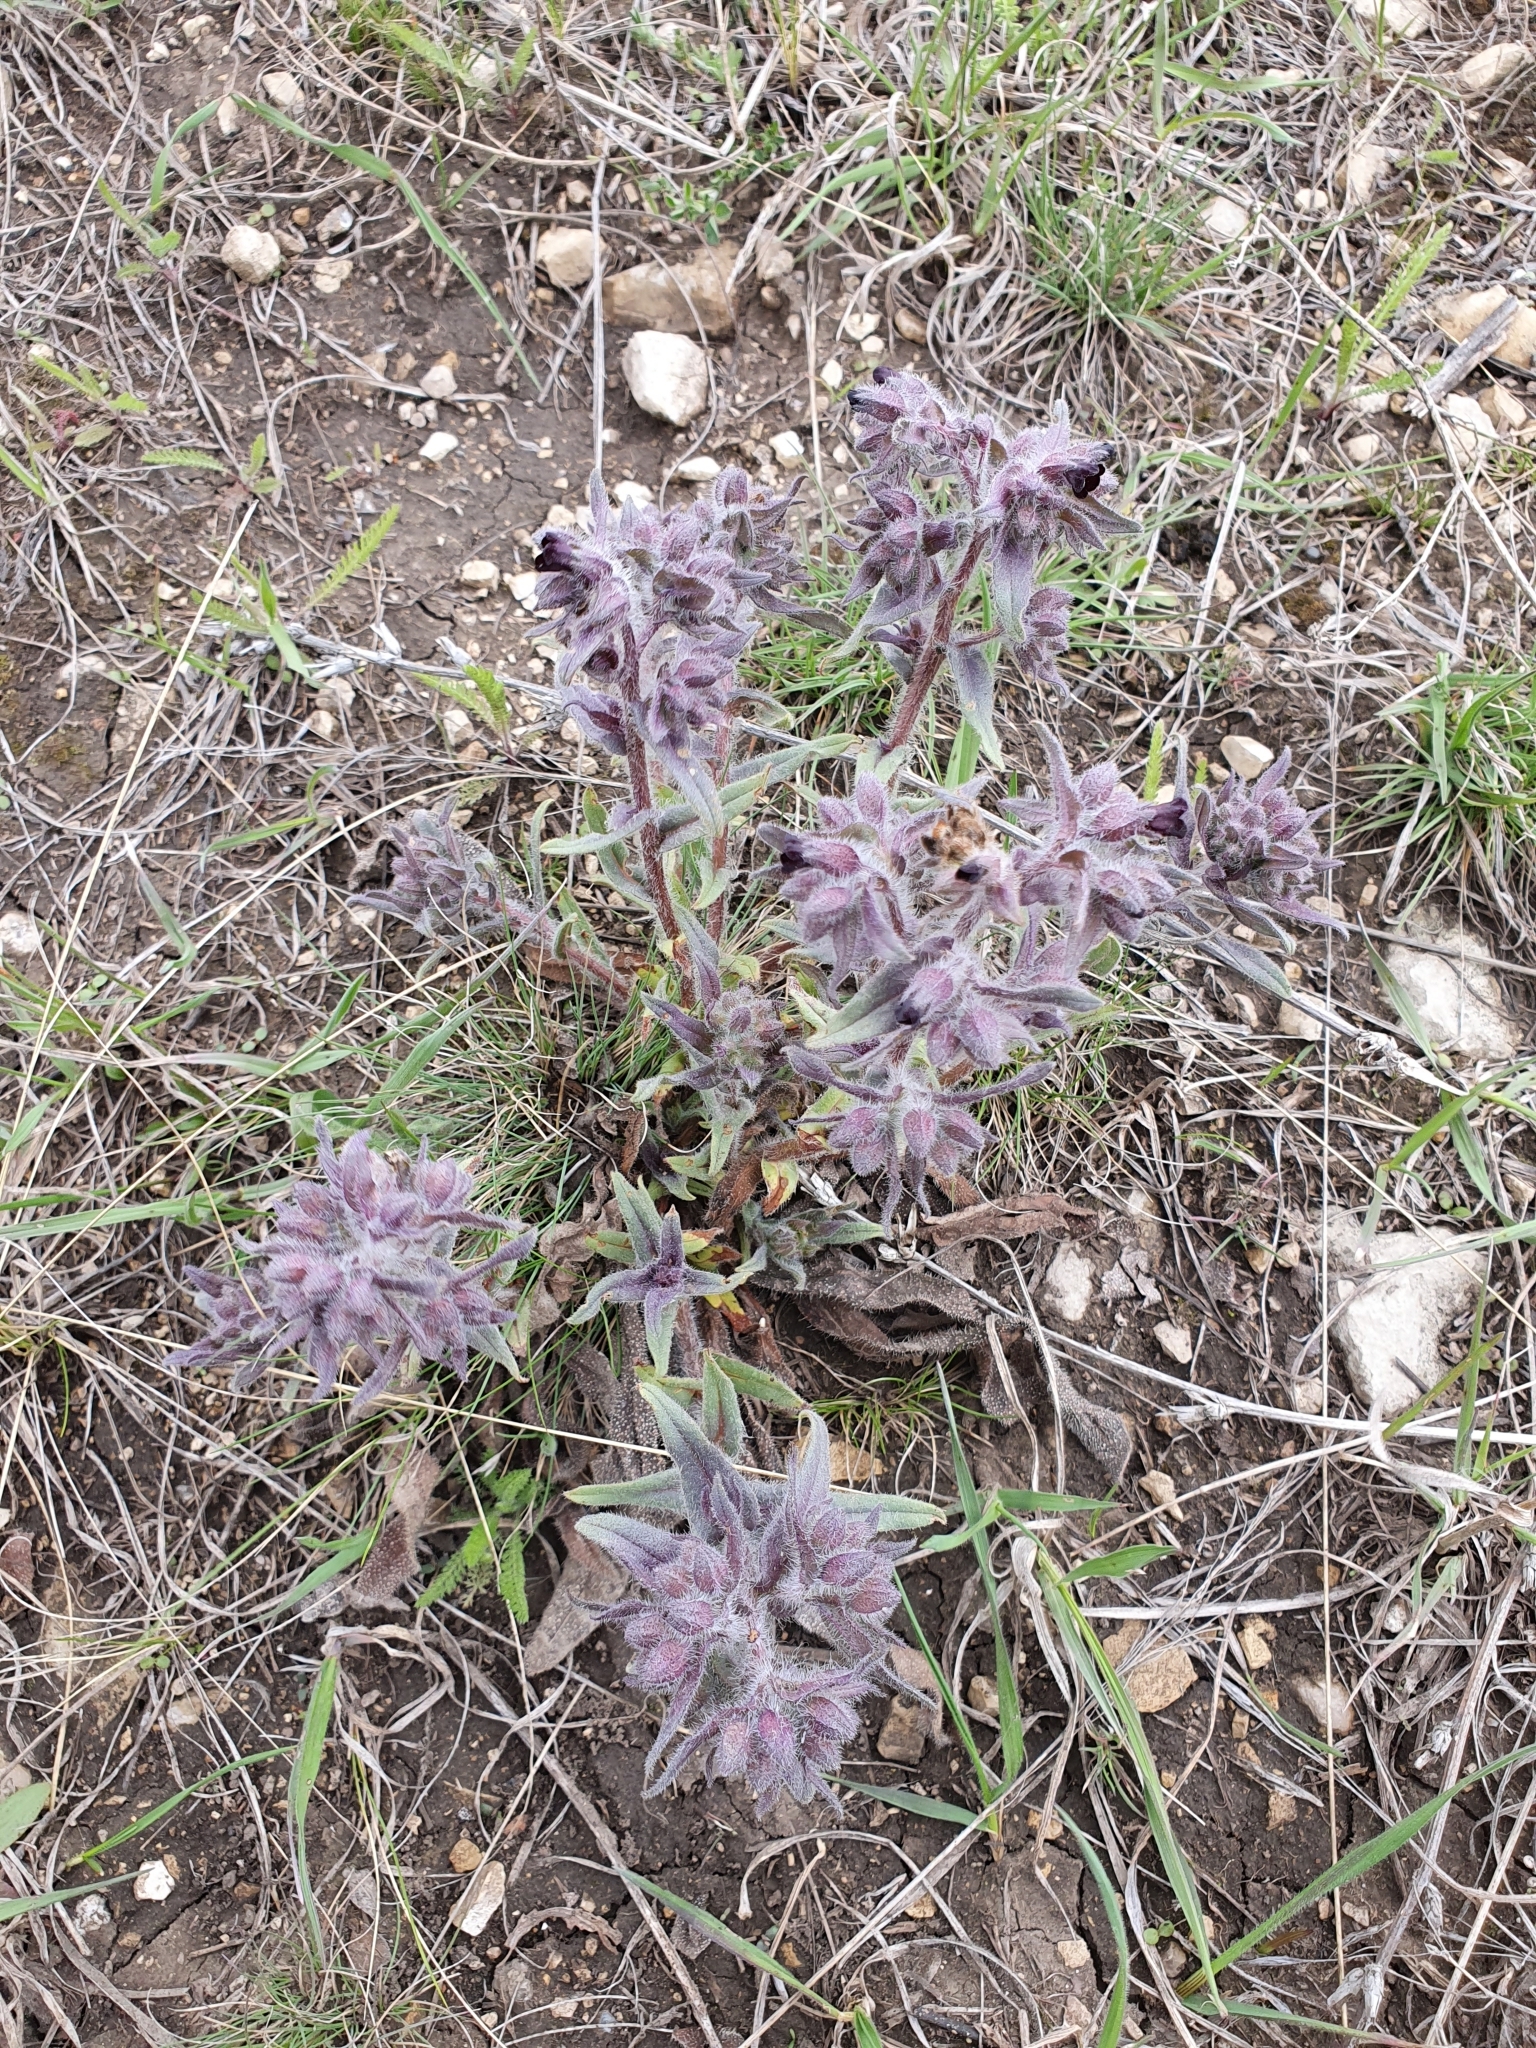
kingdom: Plantae
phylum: Tracheophyta
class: Magnoliopsida
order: Boraginales
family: Boraginaceae
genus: Nonea
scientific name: Nonea pulla
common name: Brown nonea
